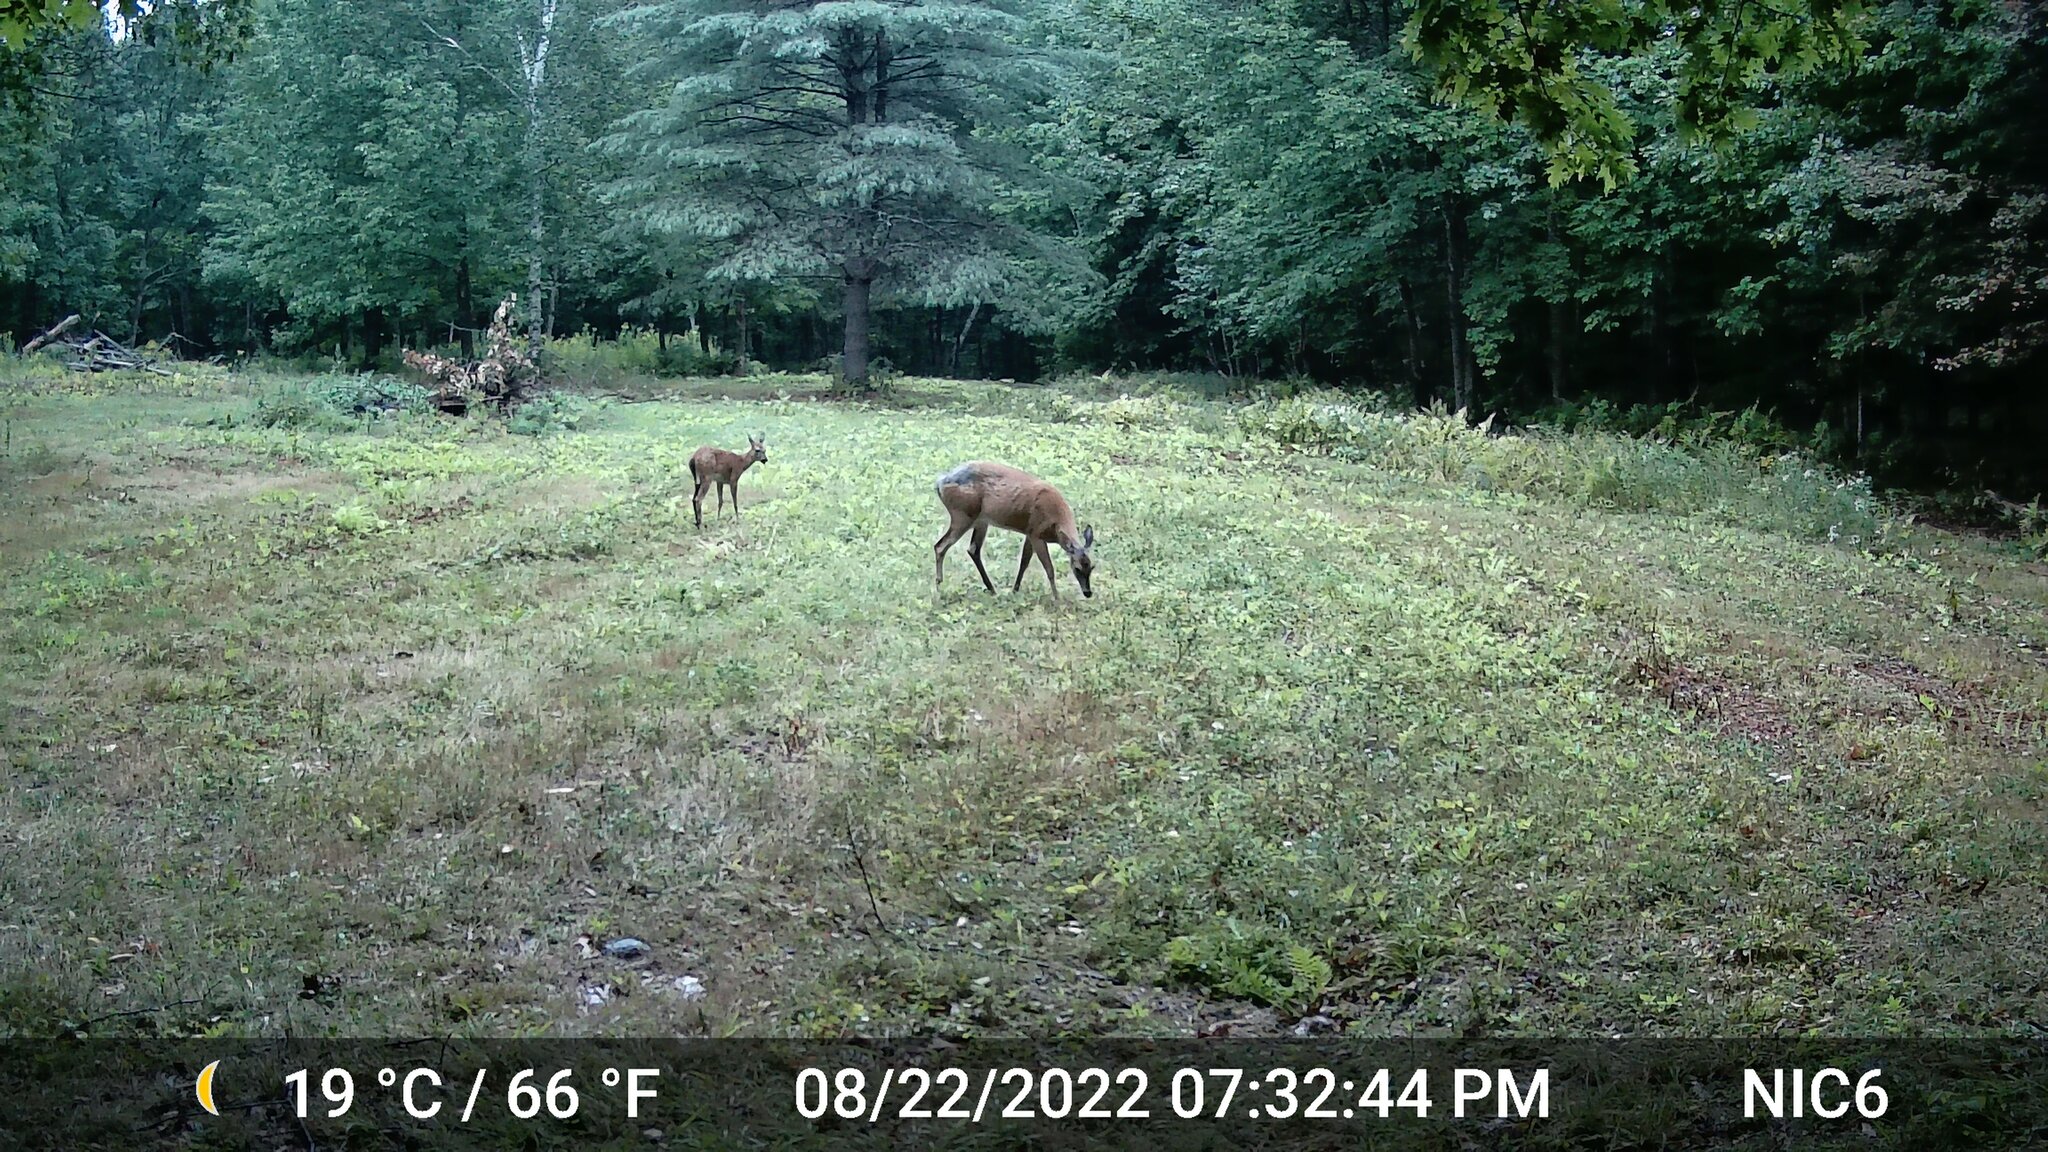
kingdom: Animalia
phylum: Chordata
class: Mammalia
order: Artiodactyla
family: Cervidae
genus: Odocoileus
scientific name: Odocoileus virginianus
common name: White-tailed deer
